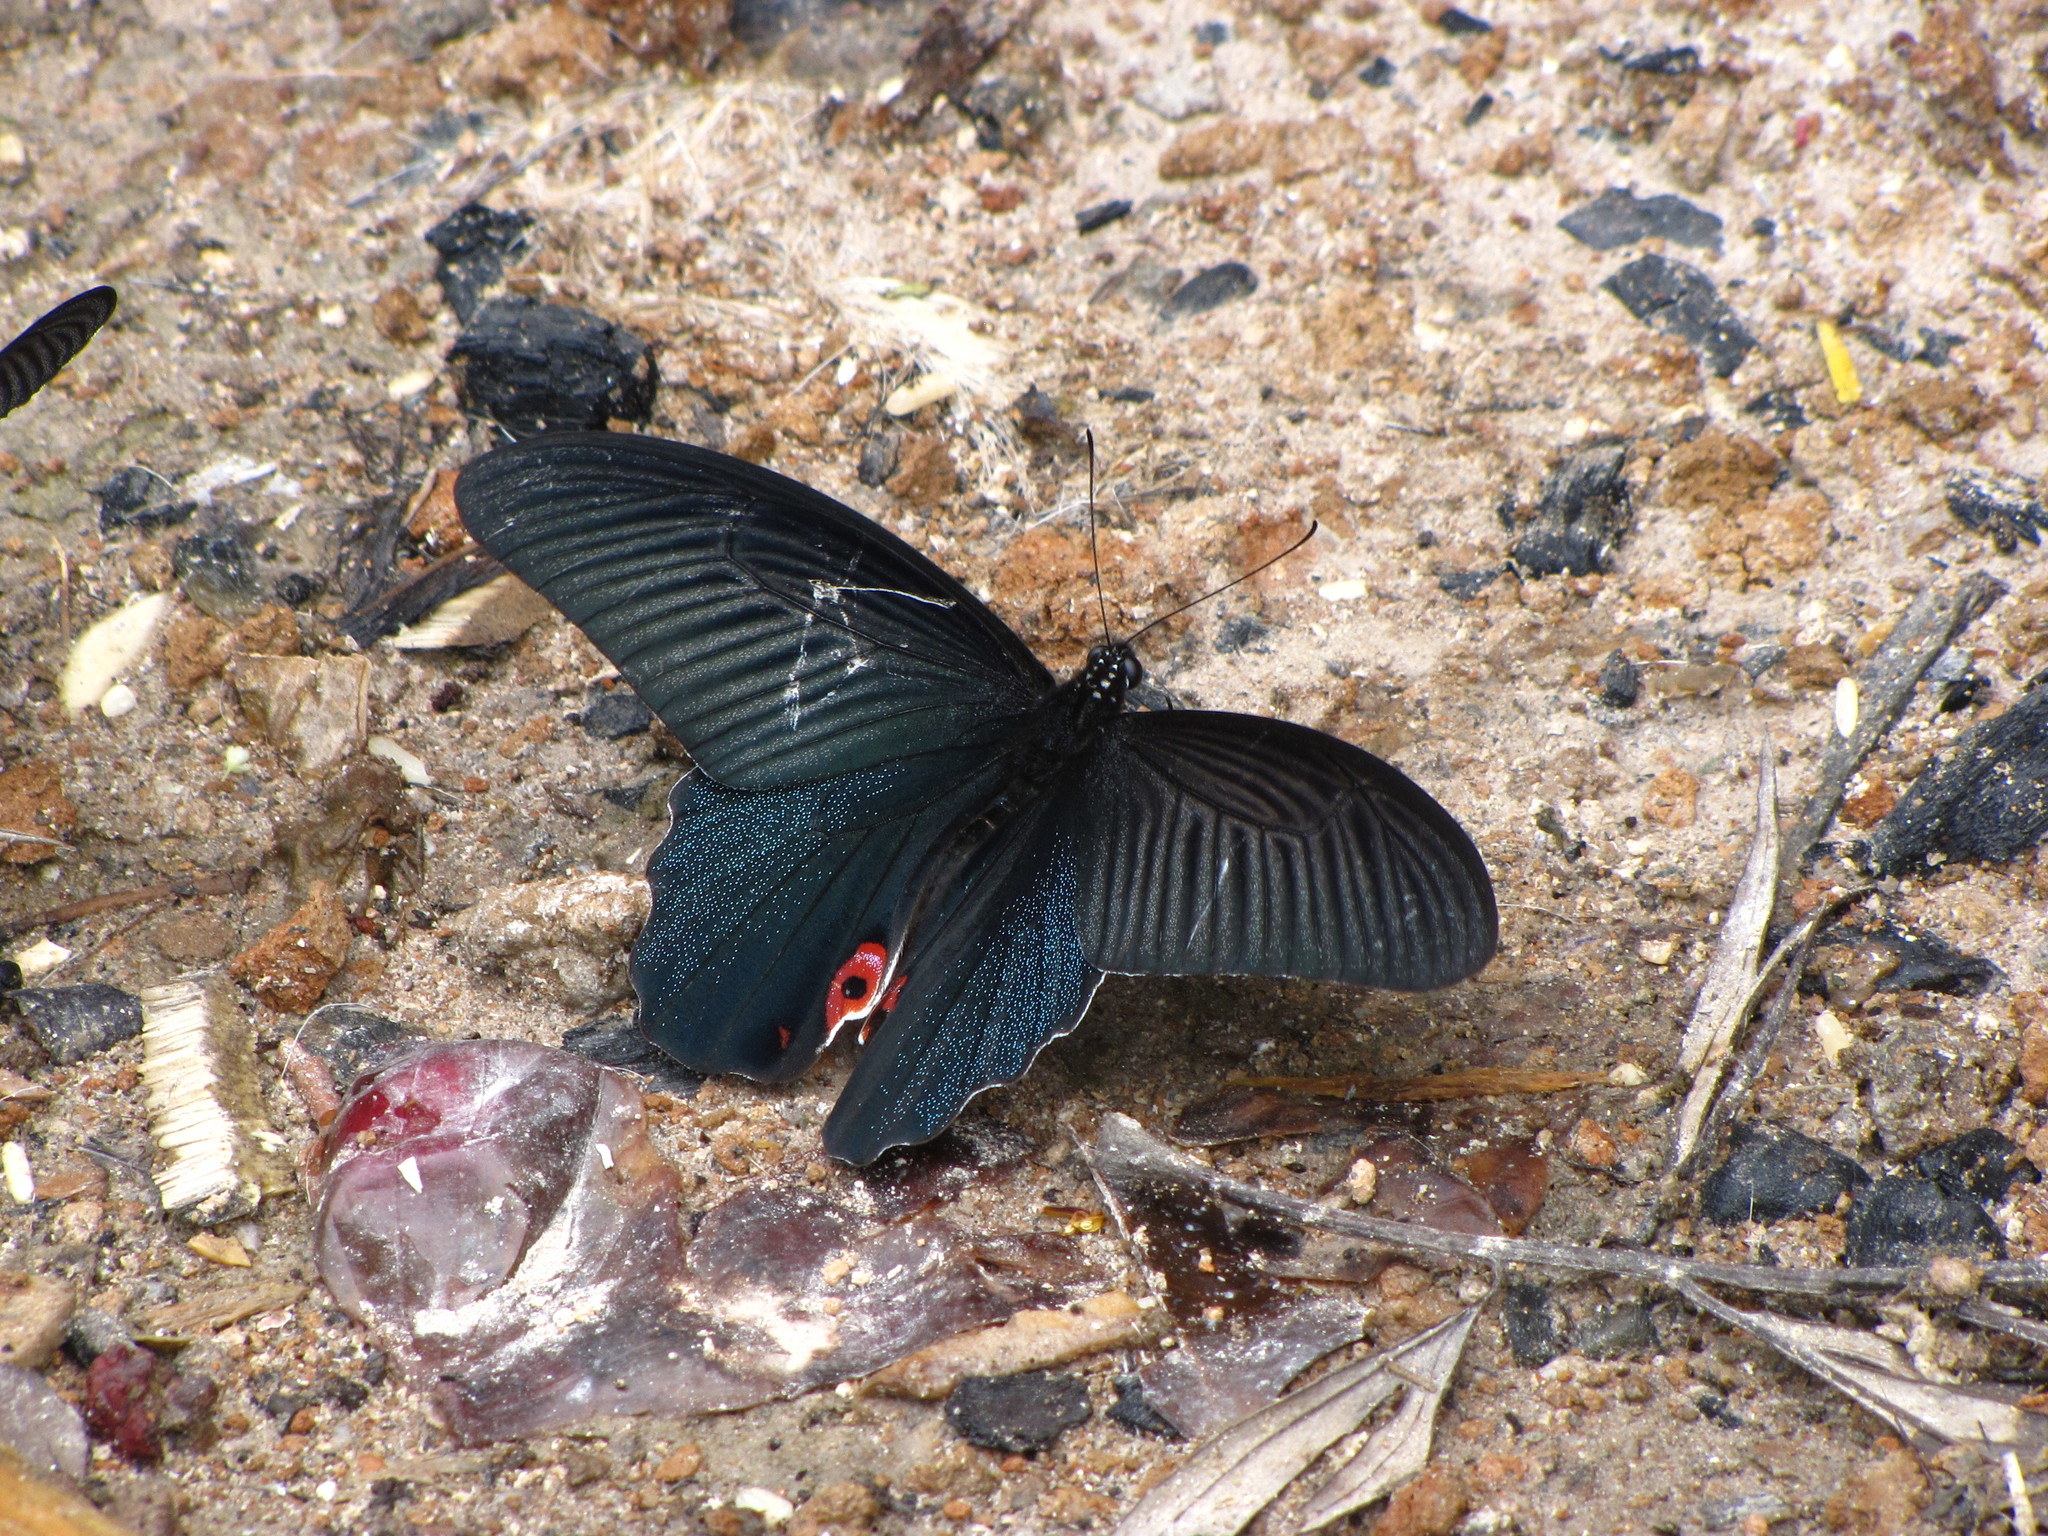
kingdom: Animalia
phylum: Arthropoda
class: Insecta
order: Lepidoptera
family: Papilionidae
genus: Papilio
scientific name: Papilio protenor
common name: Spangle
